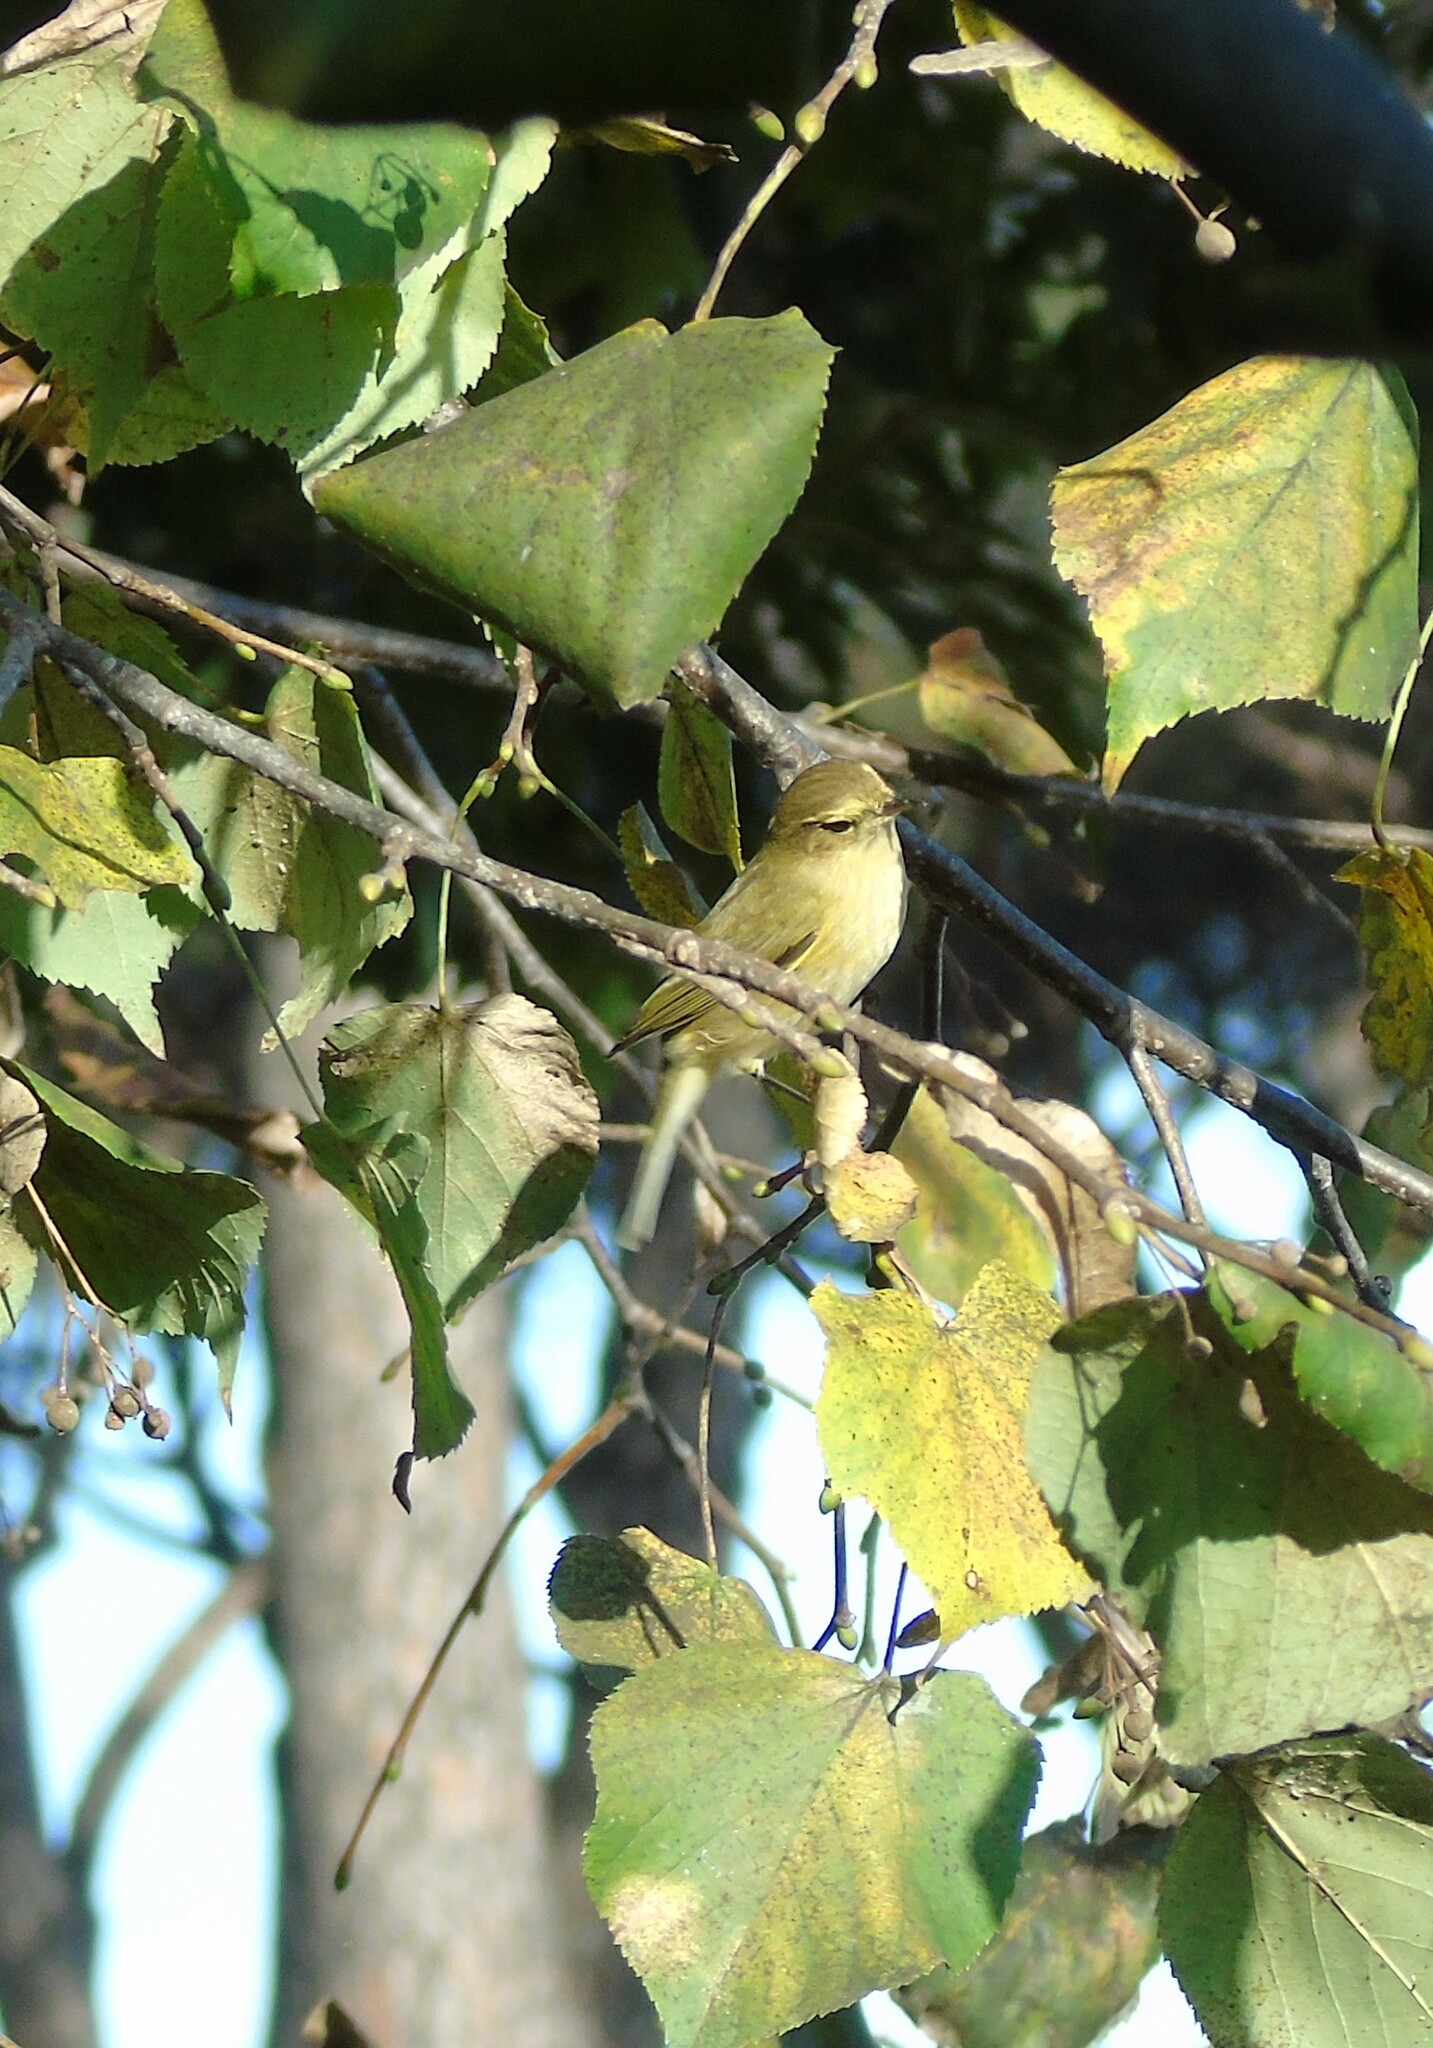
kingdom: Animalia
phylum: Chordata
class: Aves
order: Passeriformes
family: Phylloscopidae
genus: Phylloscopus
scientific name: Phylloscopus collybita
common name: Common chiffchaff
